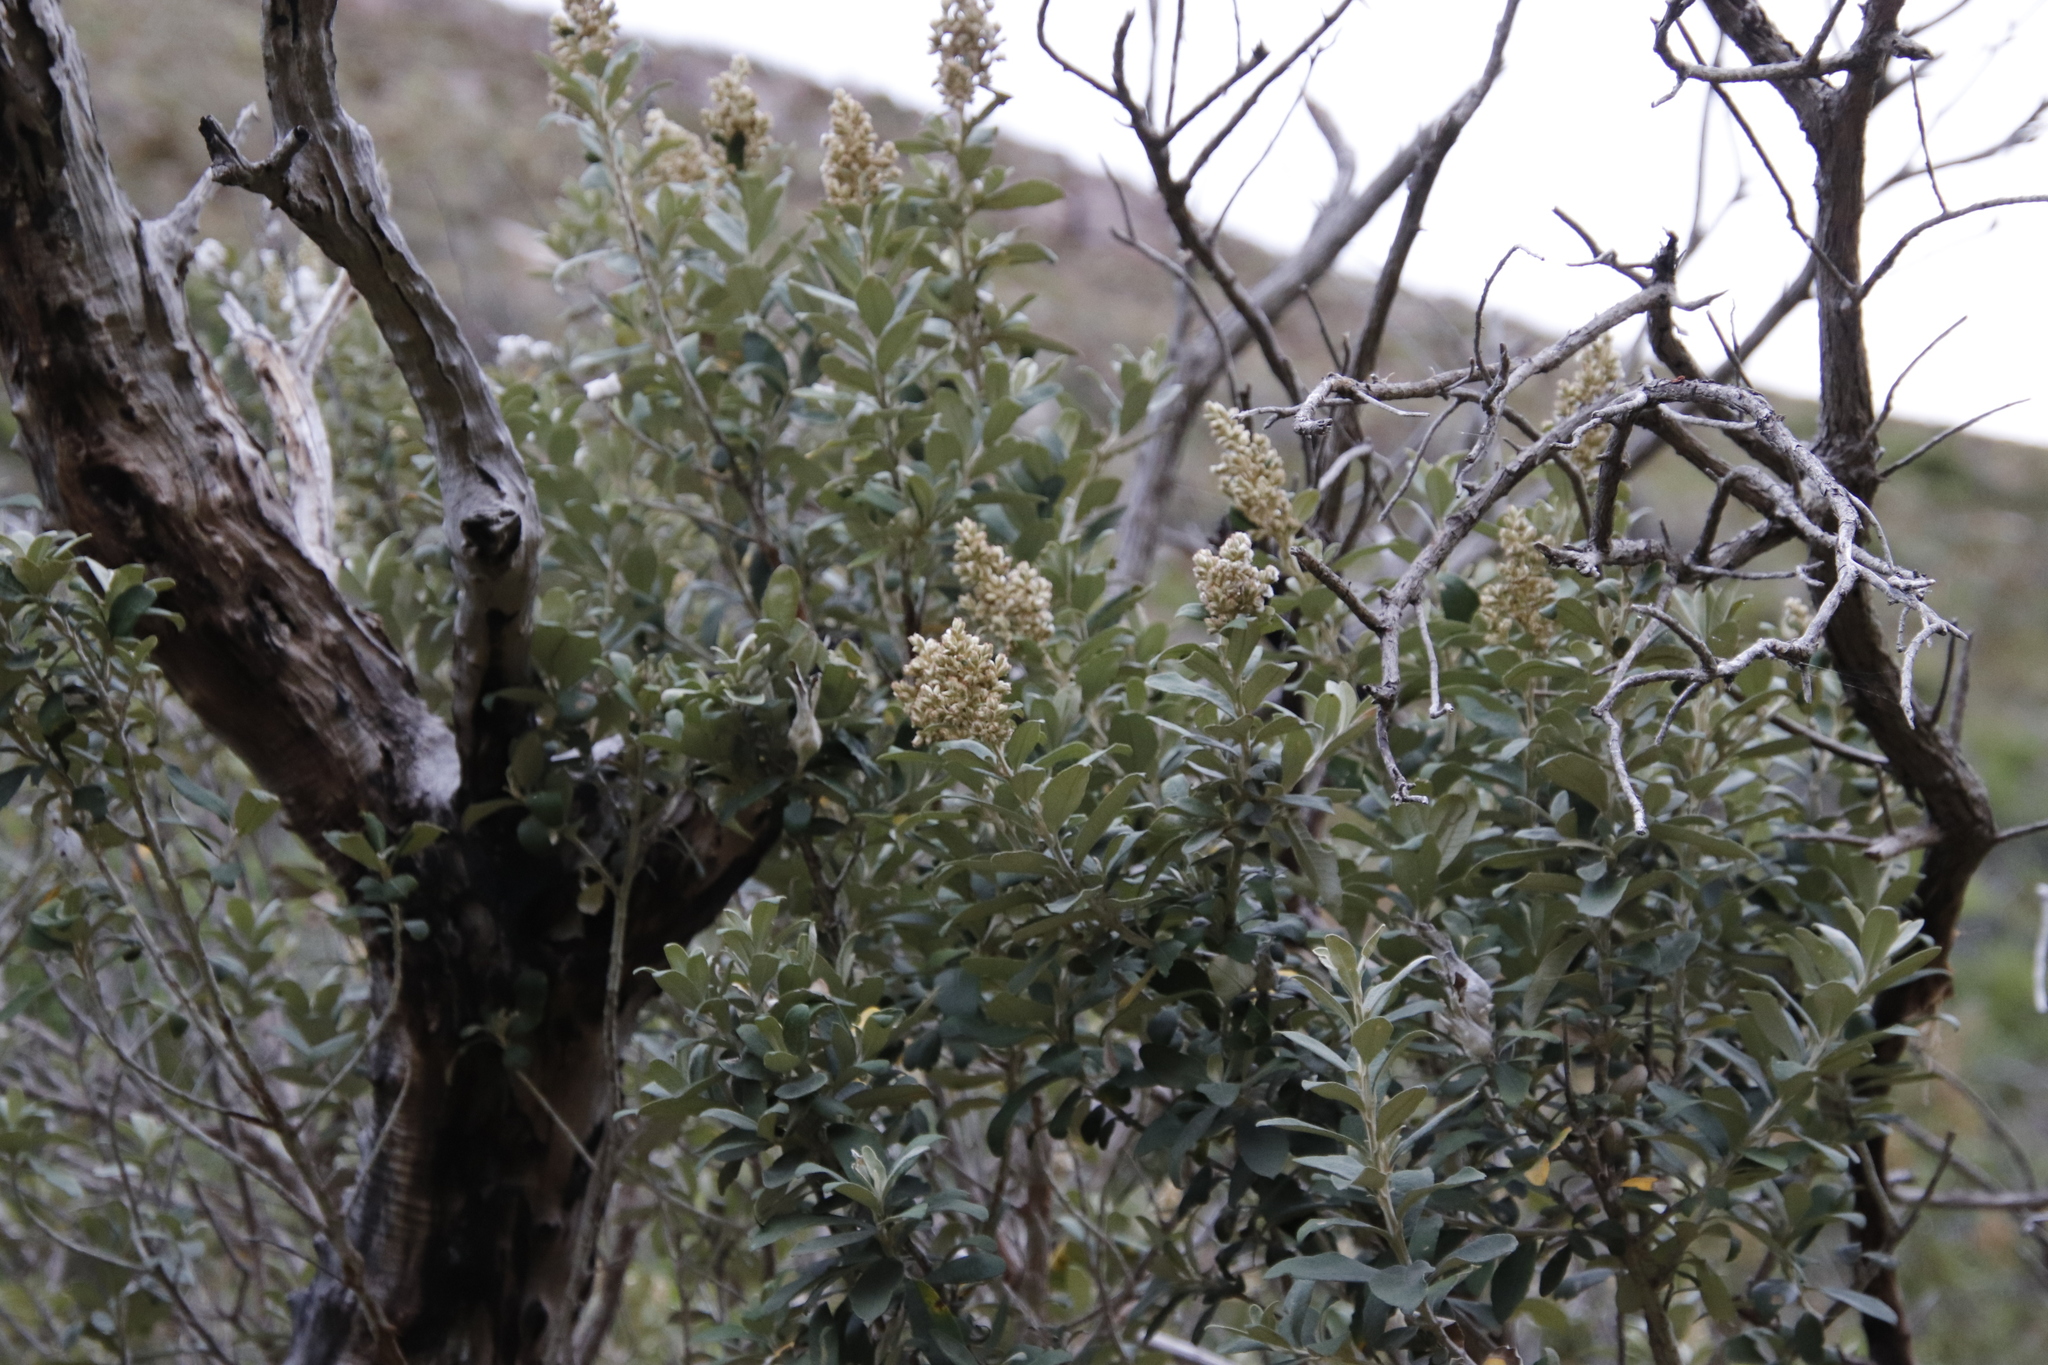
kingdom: Plantae
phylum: Tracheophyta
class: Magnoliopsida
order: Asterales
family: Asteraceae
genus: Tarchonanthus
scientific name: Tarchonanthus littoralis
